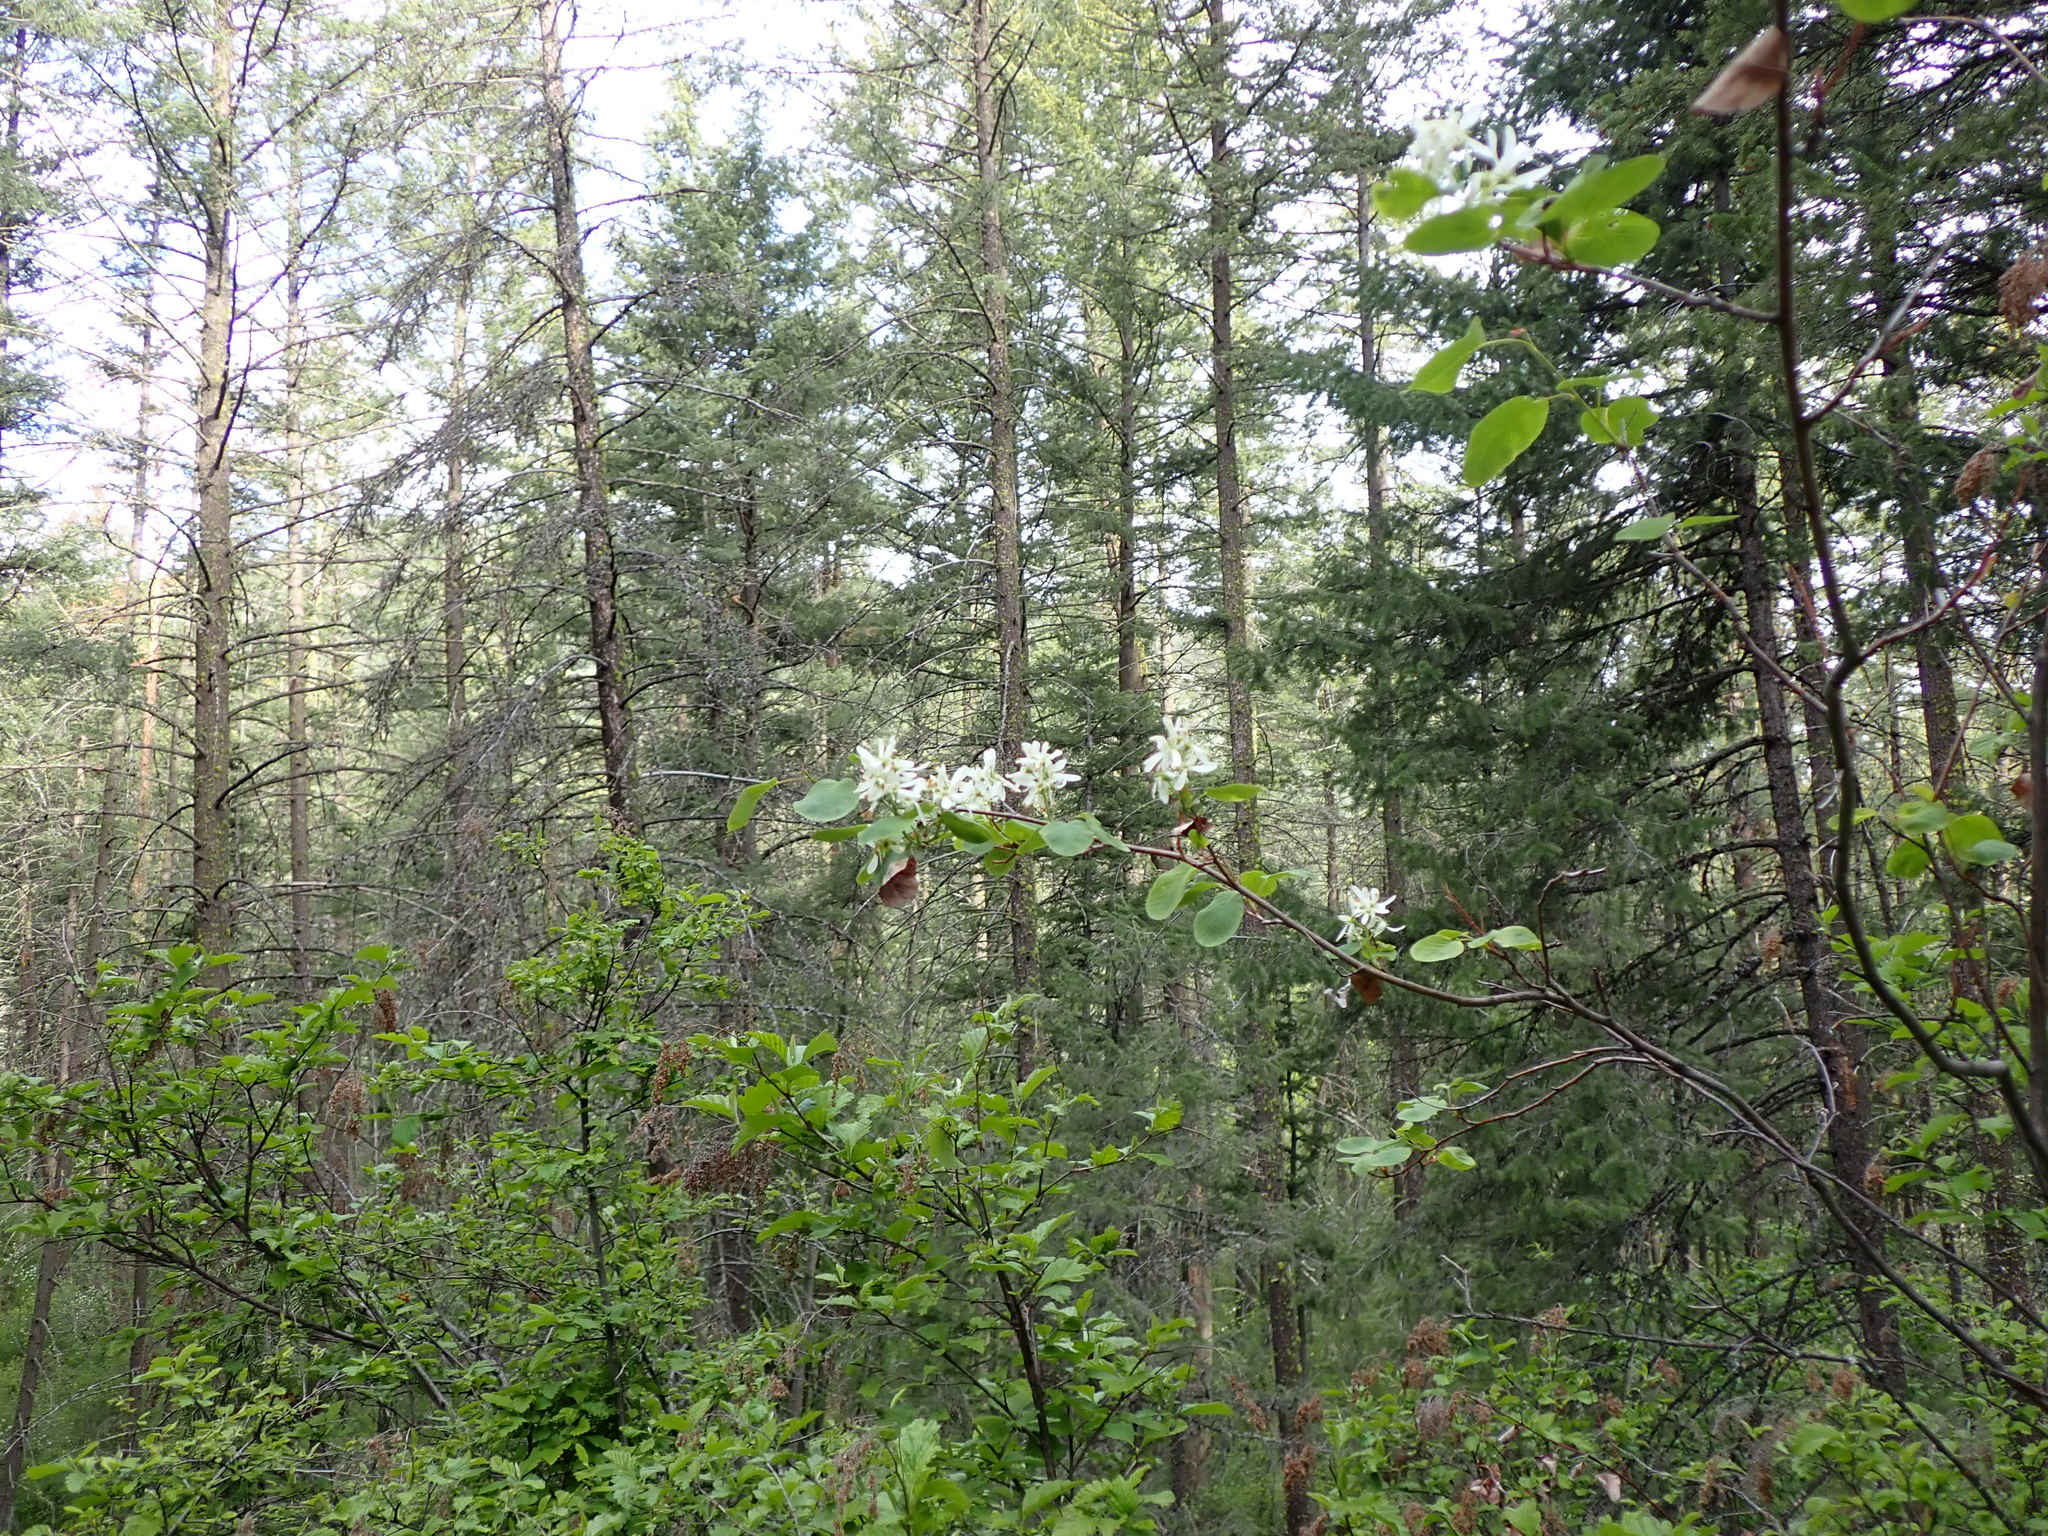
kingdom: Plantae
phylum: Tracheophyta
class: Magnoliopsida
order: Rosales
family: Rosaceae
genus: Amelanchier
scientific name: Amelanchier alnifolia
